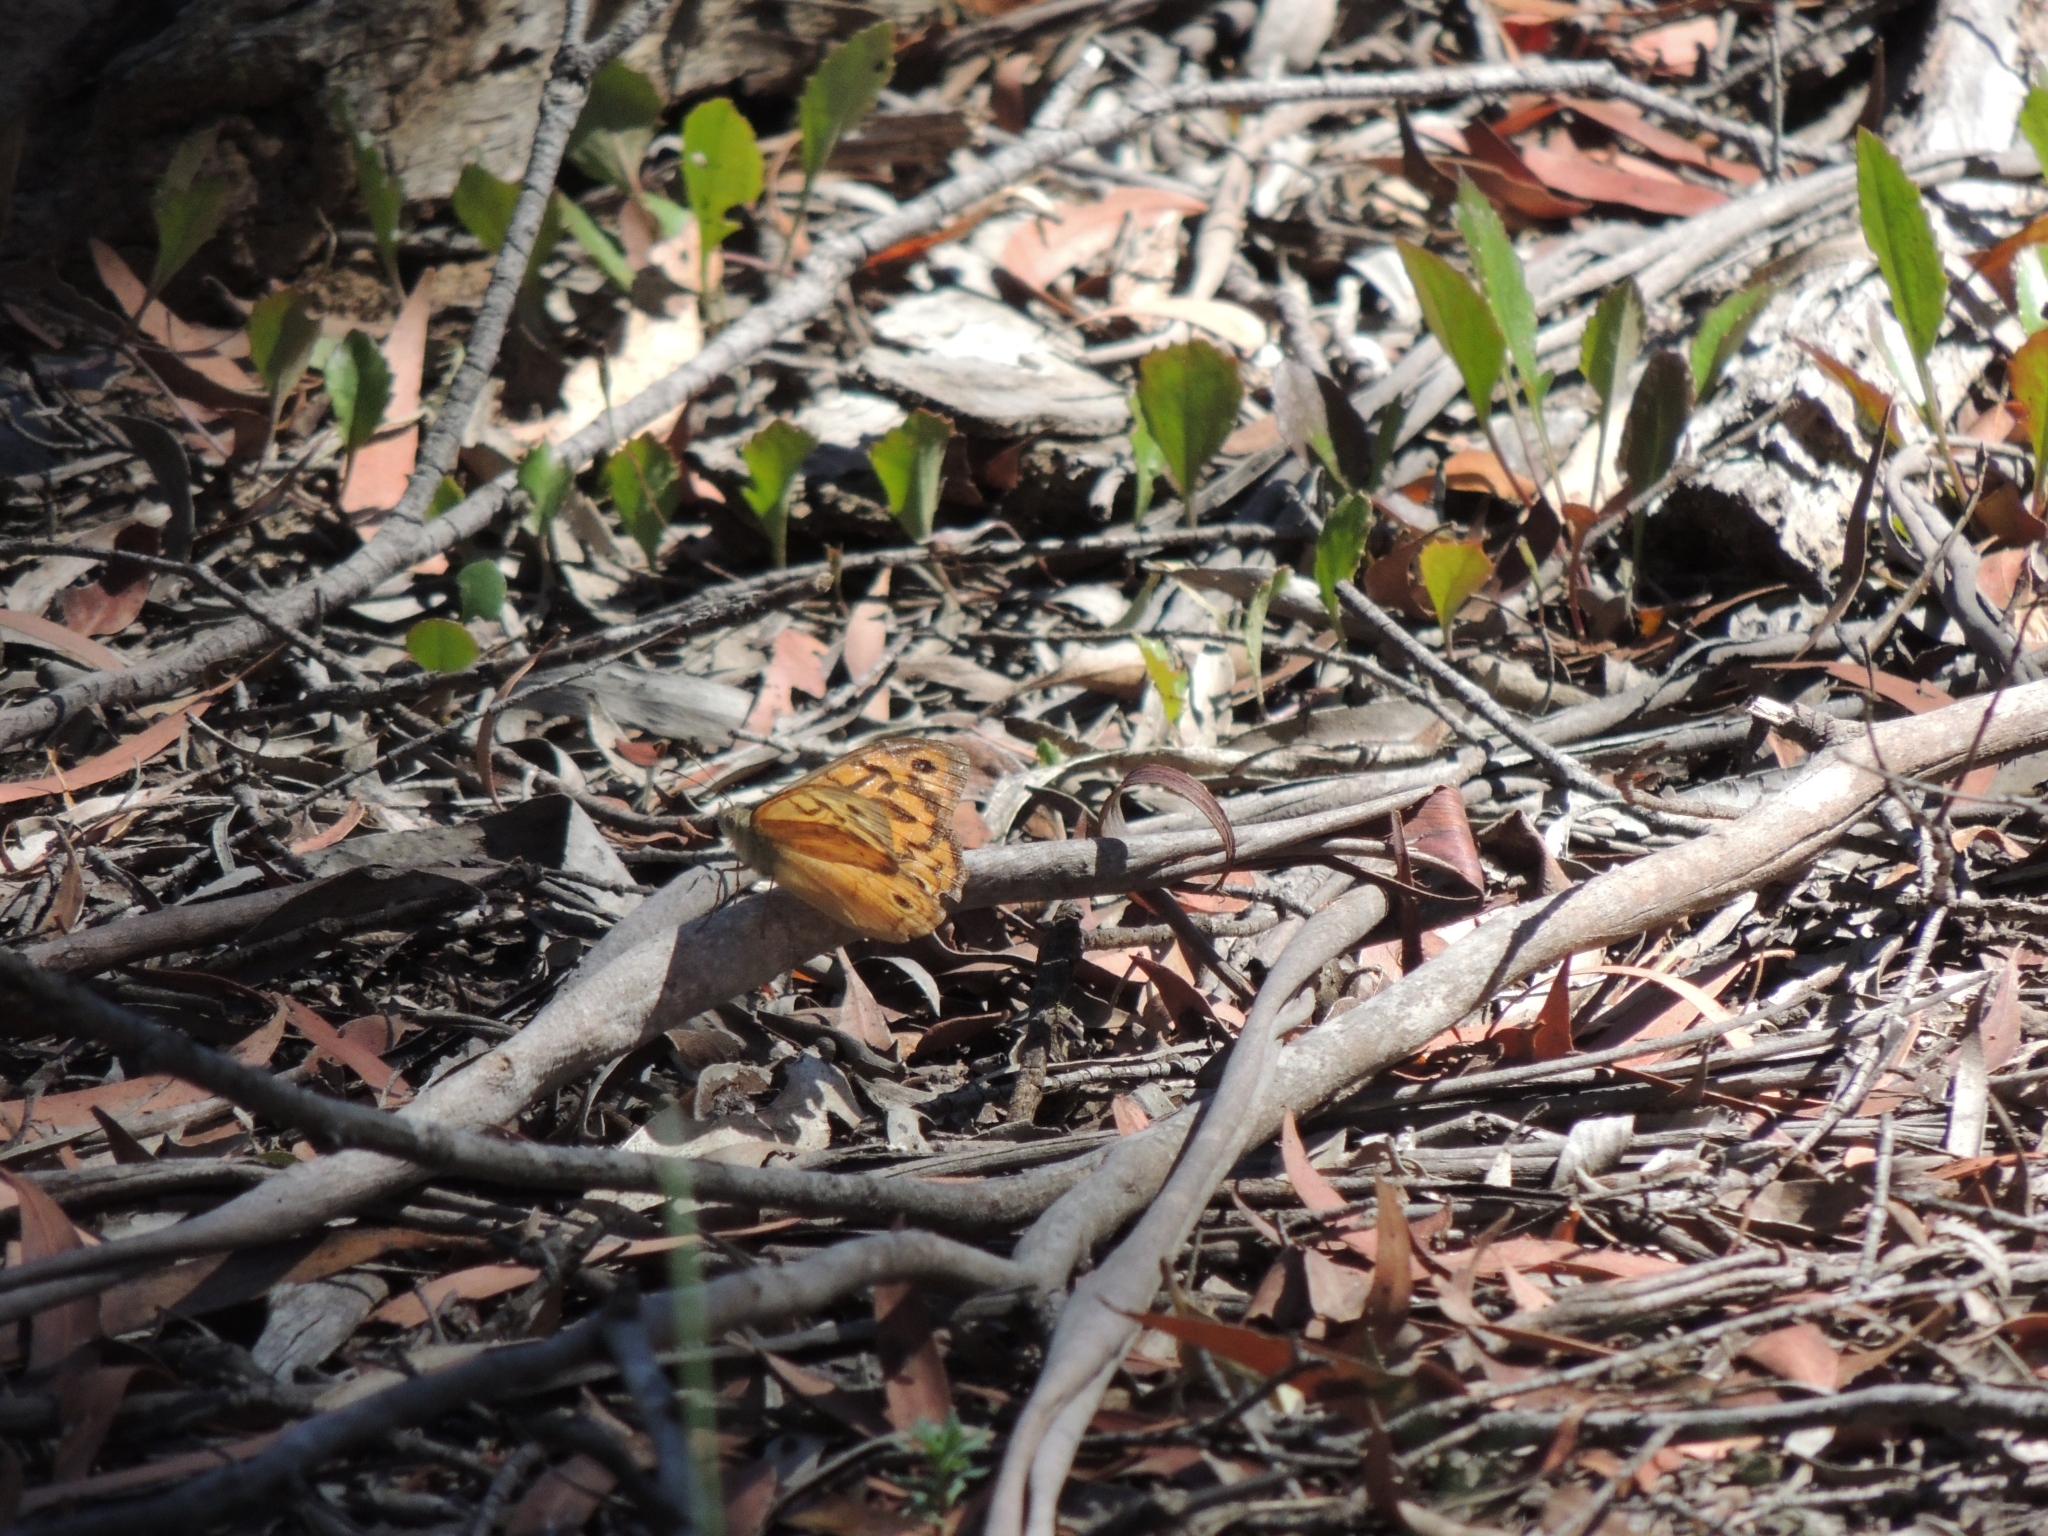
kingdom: Animalia
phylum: Arthropoda
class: Insecta
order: Lepidoptera
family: Nymphalidae
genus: Heteronympha
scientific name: Heteronympha merope
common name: Common brown
